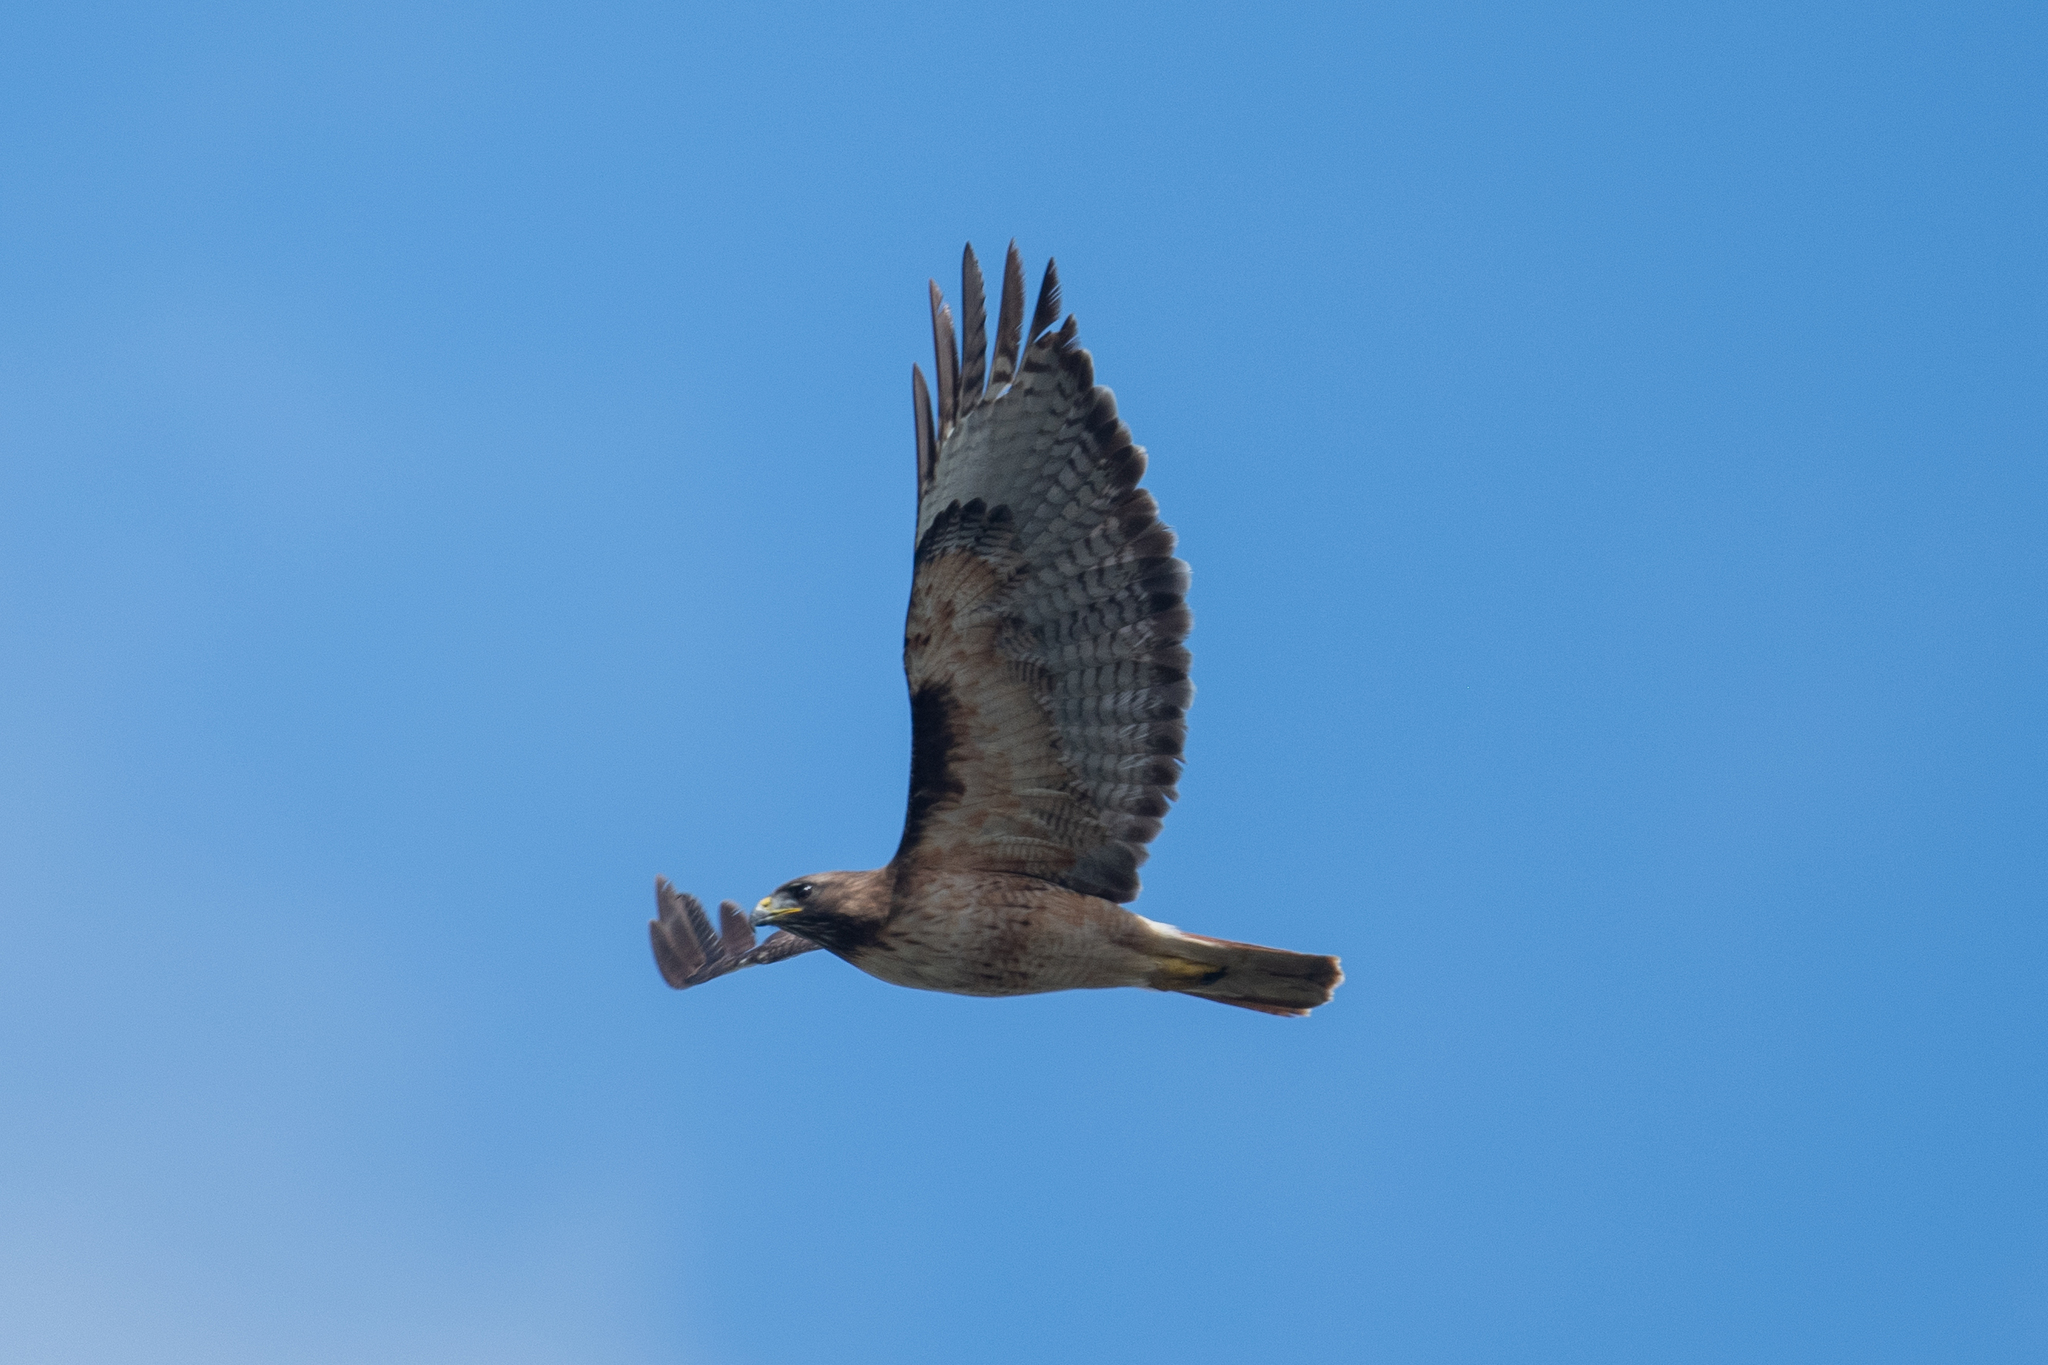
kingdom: Animalia
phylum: Chordata
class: Aves
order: Accipitriformes
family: Accipitridae
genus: Buteo
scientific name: Buteo jamaicensis
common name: Red-tailed hawk
